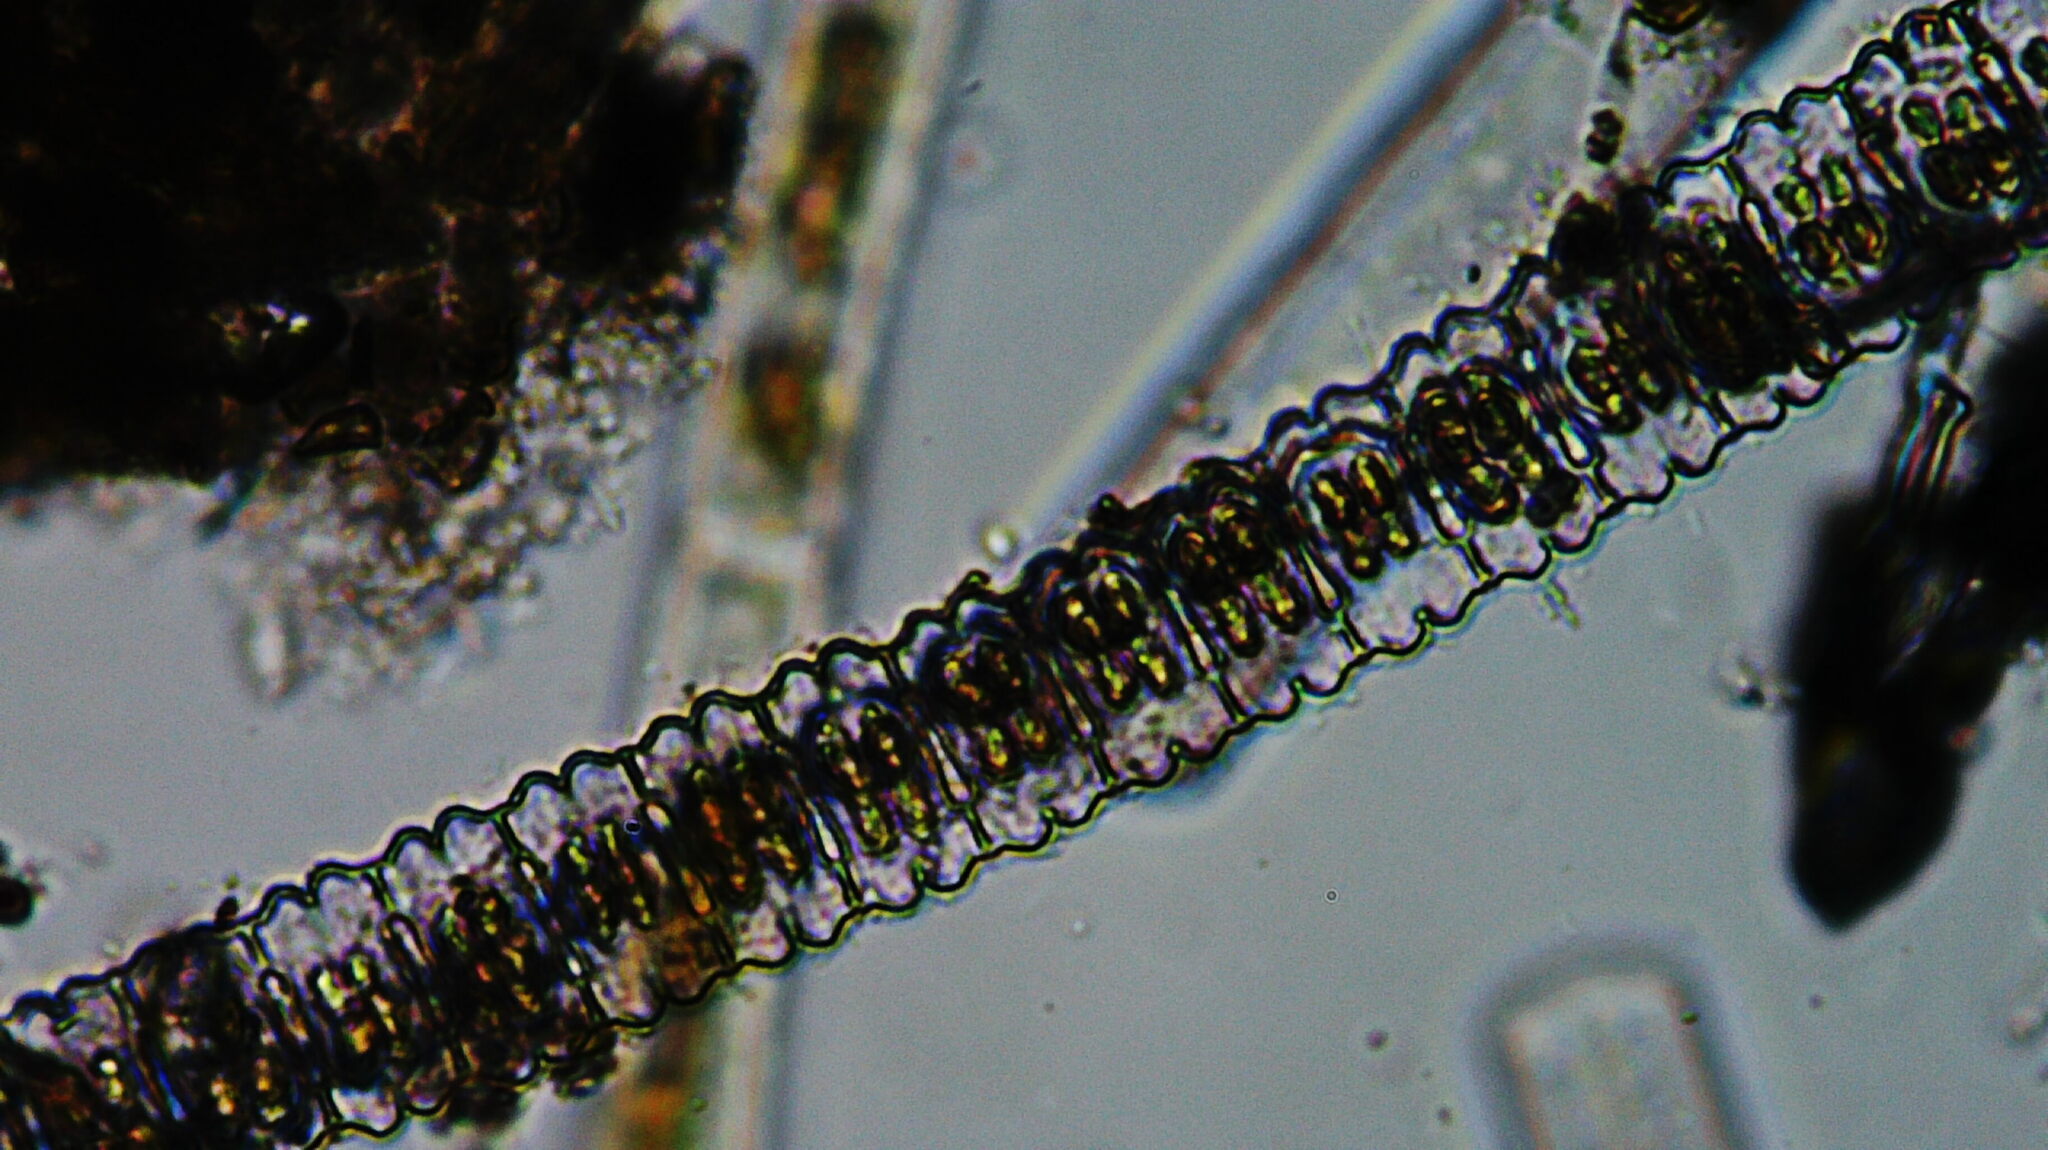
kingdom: Plantae
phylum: Charophyta
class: Zygnematophyceae
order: Zygnematales
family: Desmidiaceae
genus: Desmidium
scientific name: Desmidium aptogonum
